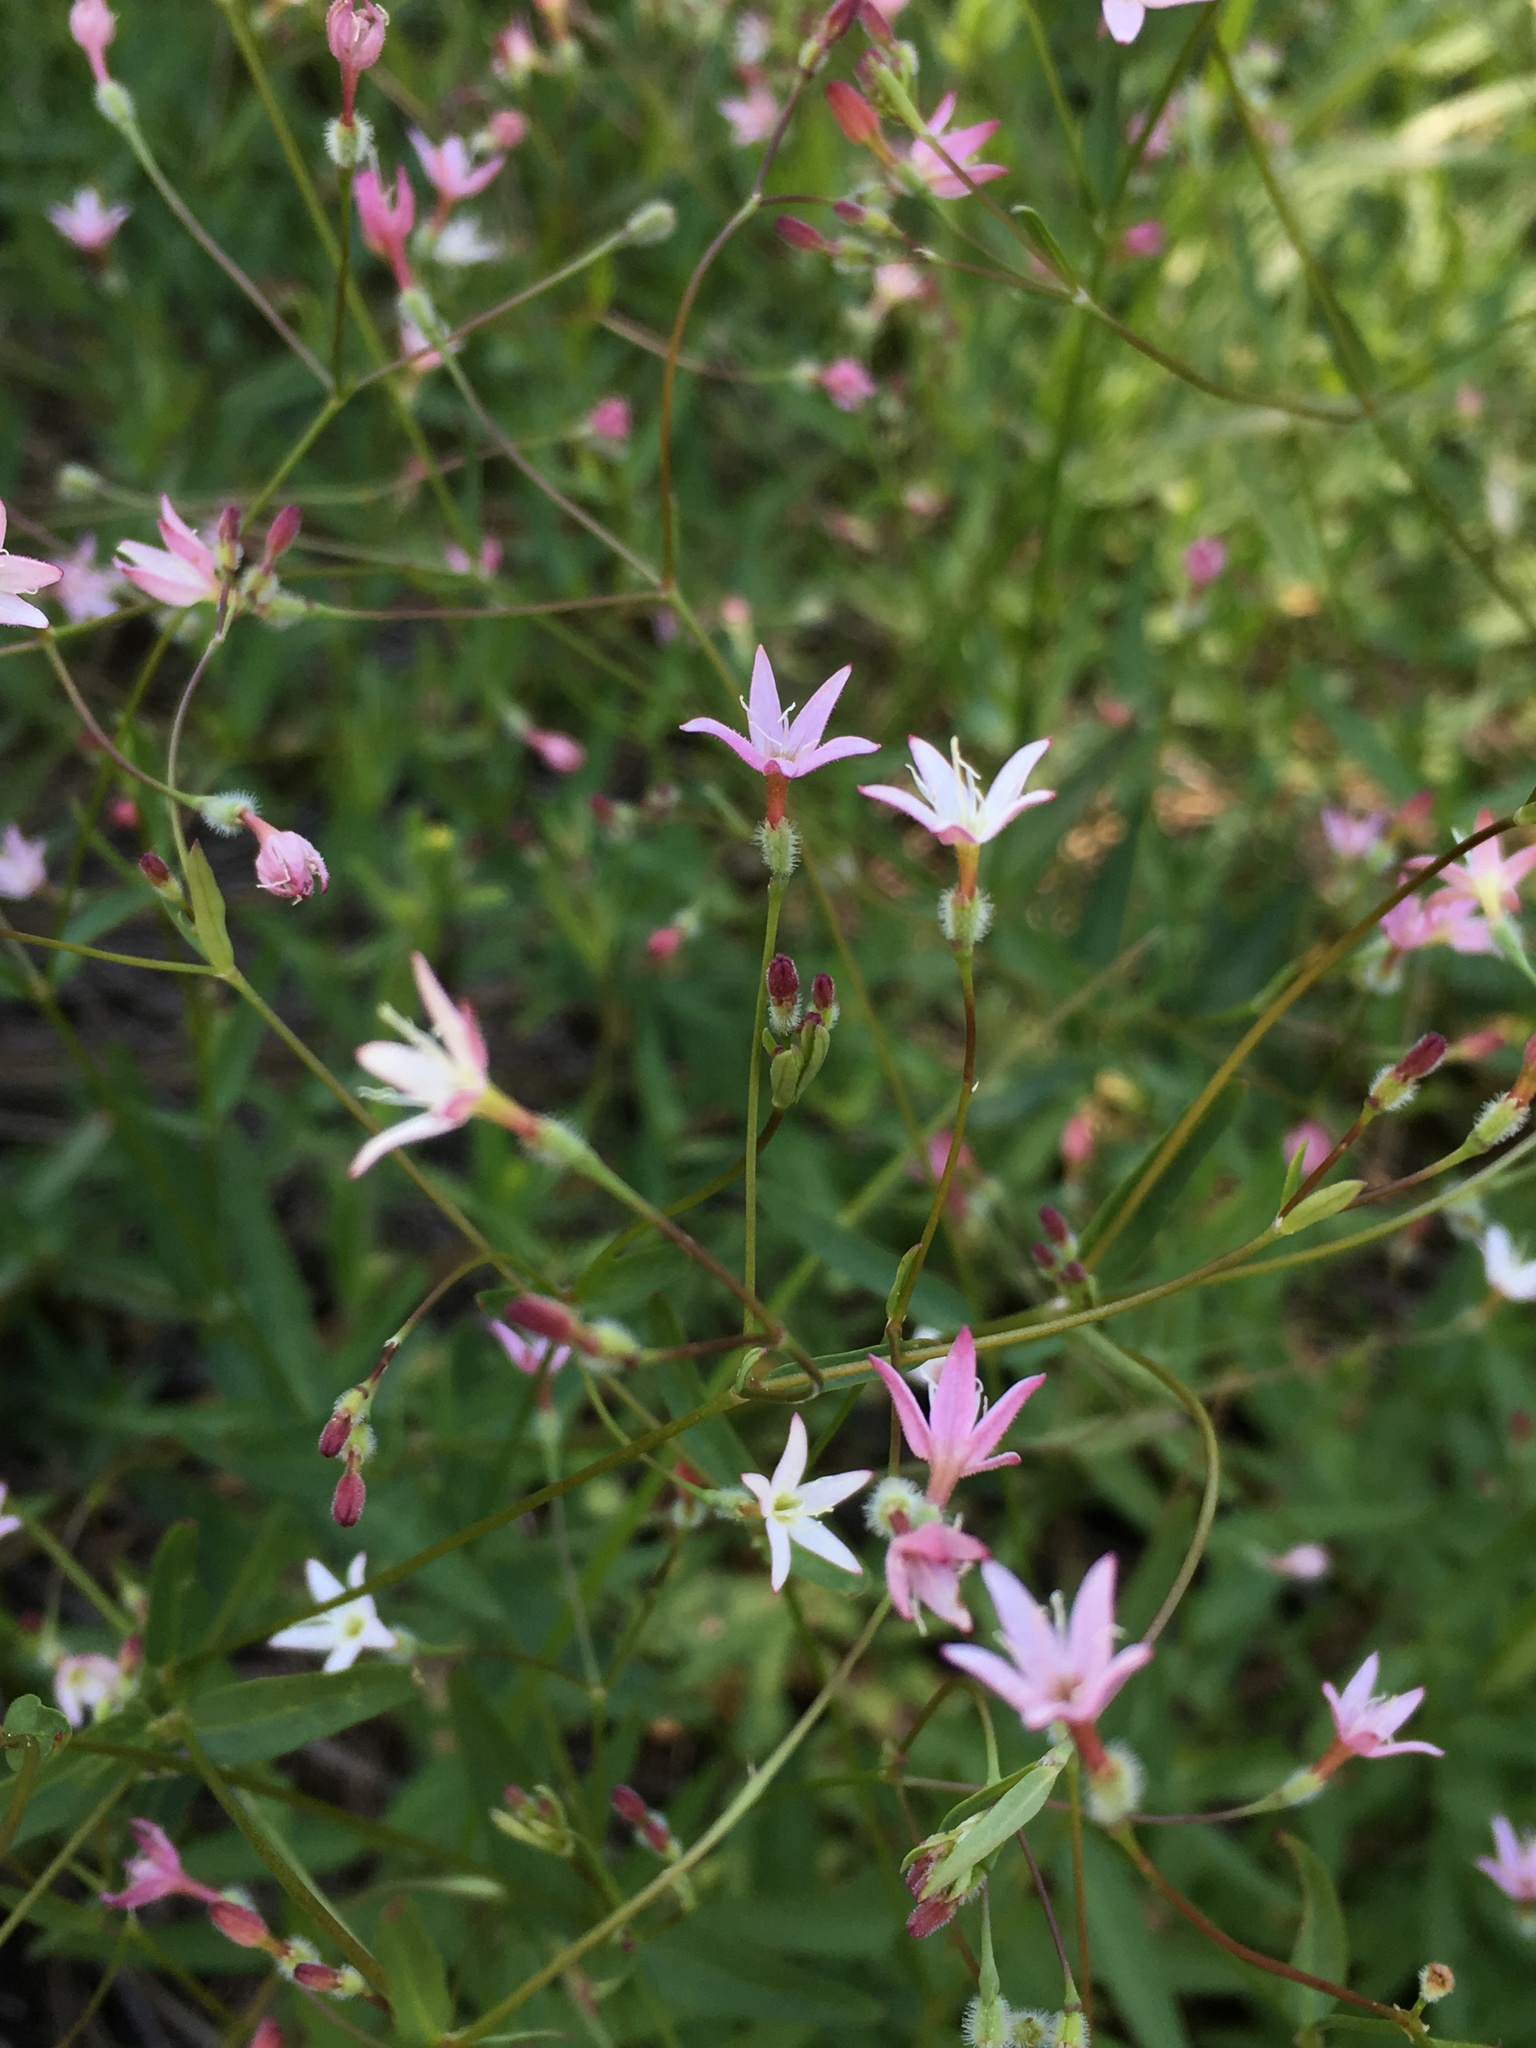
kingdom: Plantae
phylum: Tracheophyta
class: Magnoliopsida
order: Gentianales
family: Rubiaceae
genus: Kelloggia
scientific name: Kelloggia galioides
